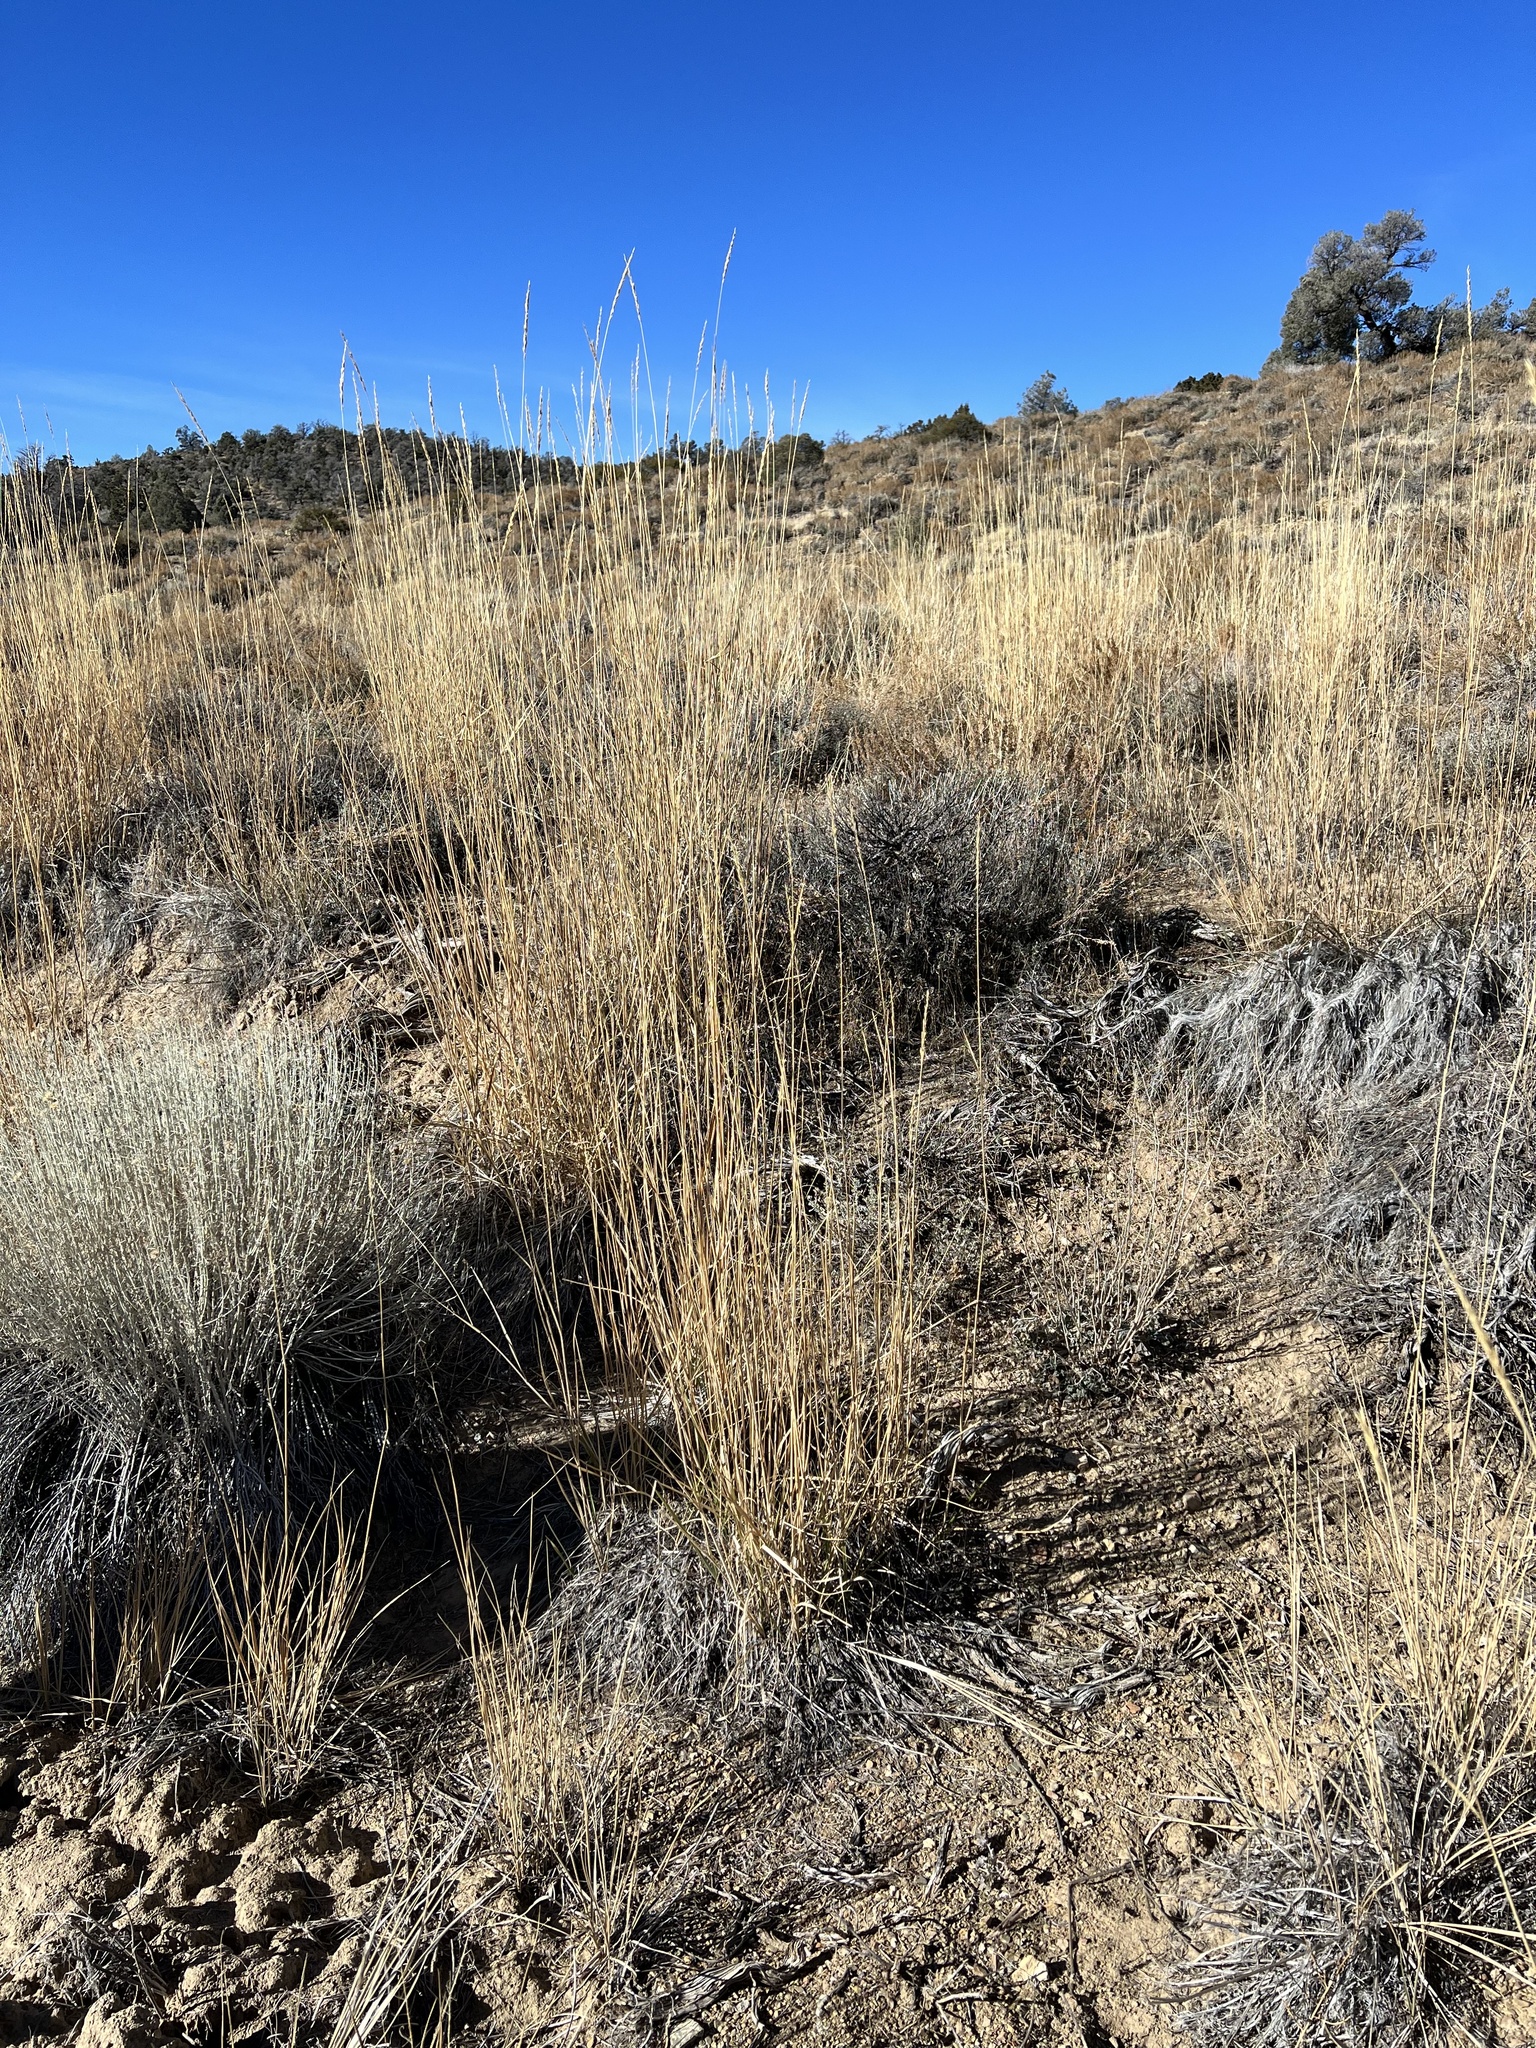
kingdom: Plantae
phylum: Tracheophyta
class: Liliopsida
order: Poales
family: Poaceae
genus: Leymus
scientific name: Leymus cinereus
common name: Basin wild rye
